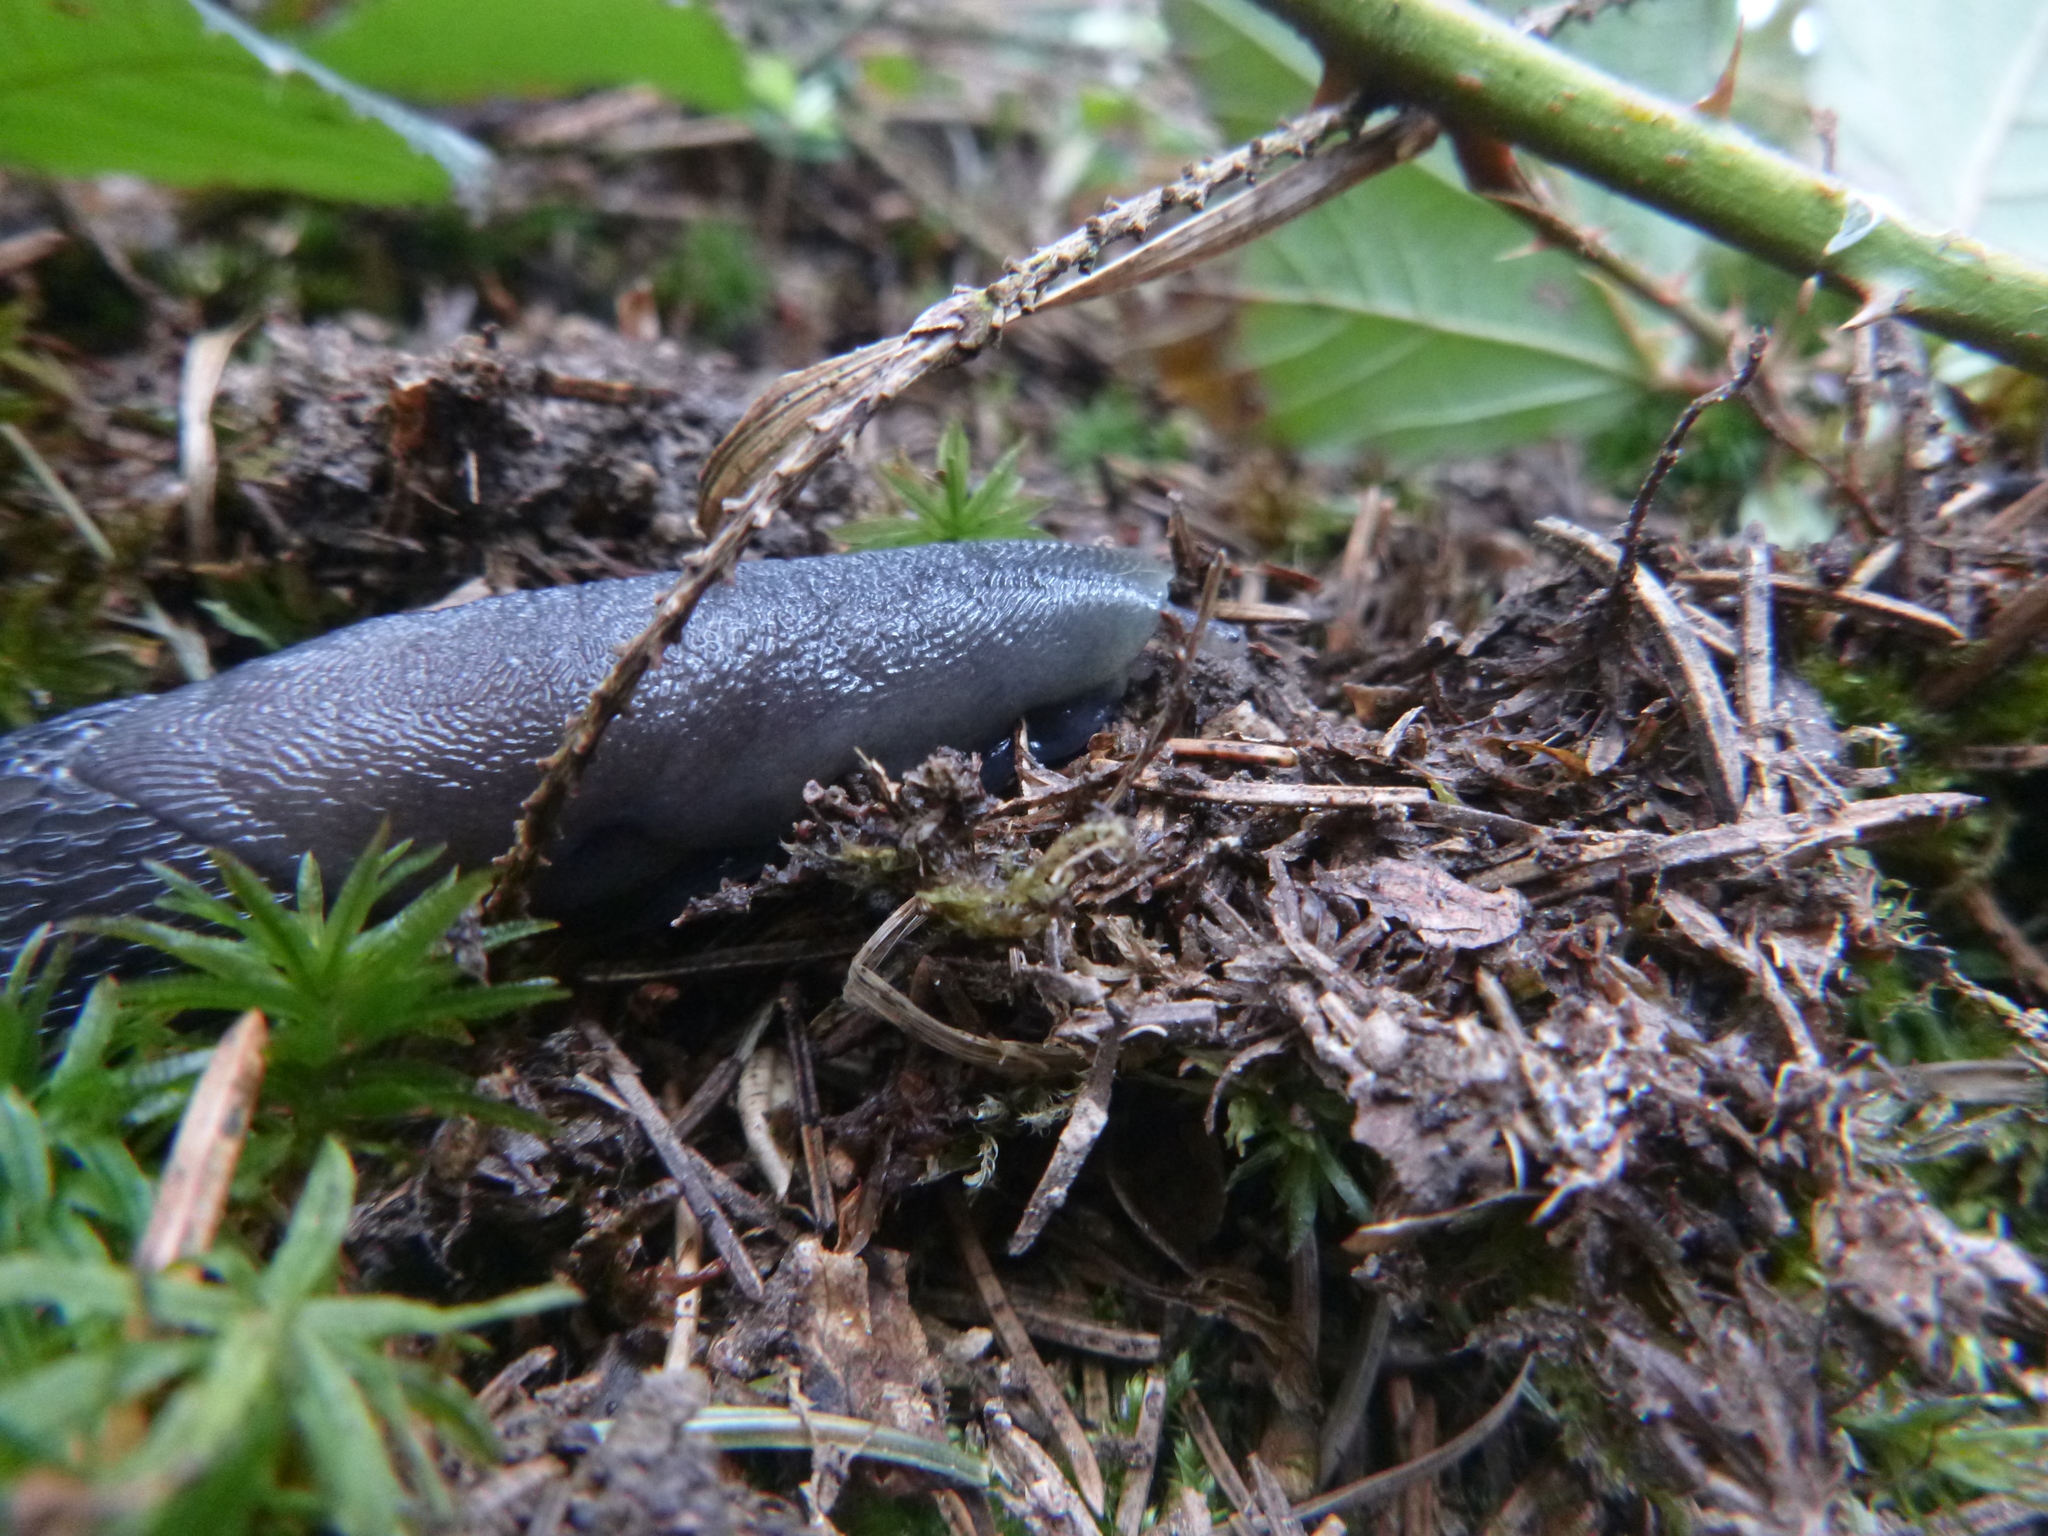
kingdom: Animalia
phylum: Mollusca
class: Gastropoda
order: Stylommatophora
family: Limacidae
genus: Limax
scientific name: Limax cinereoniger
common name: Ash-black slug
